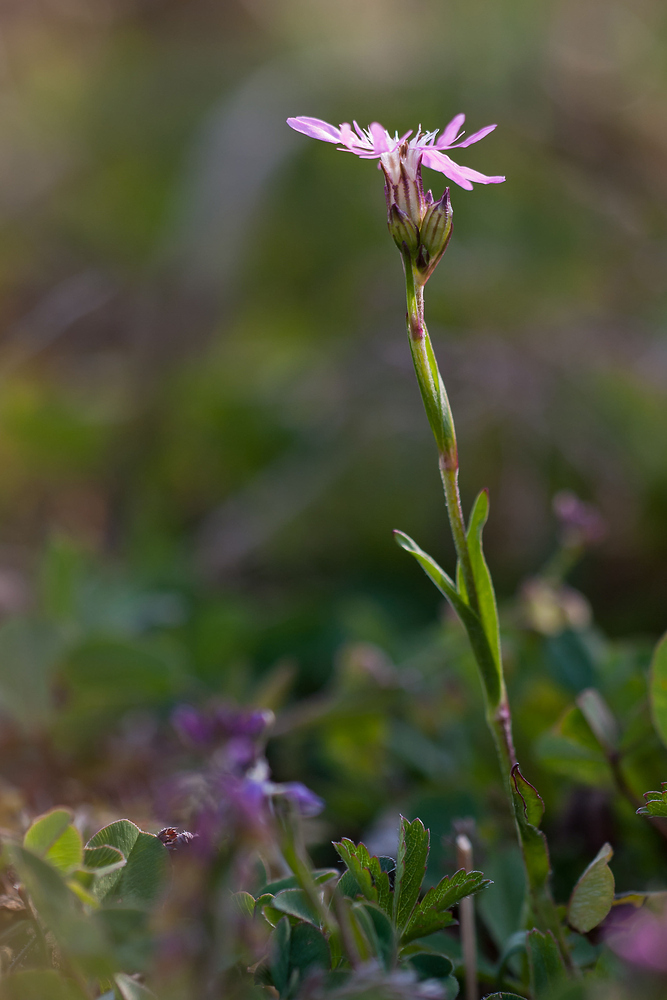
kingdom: Plantae
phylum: Tracheophyta
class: Magnoliopsida
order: Caryophyllales
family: Caryophyllaceae
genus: Silene
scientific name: Silene flos-cuculi
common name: Ragged-robin
